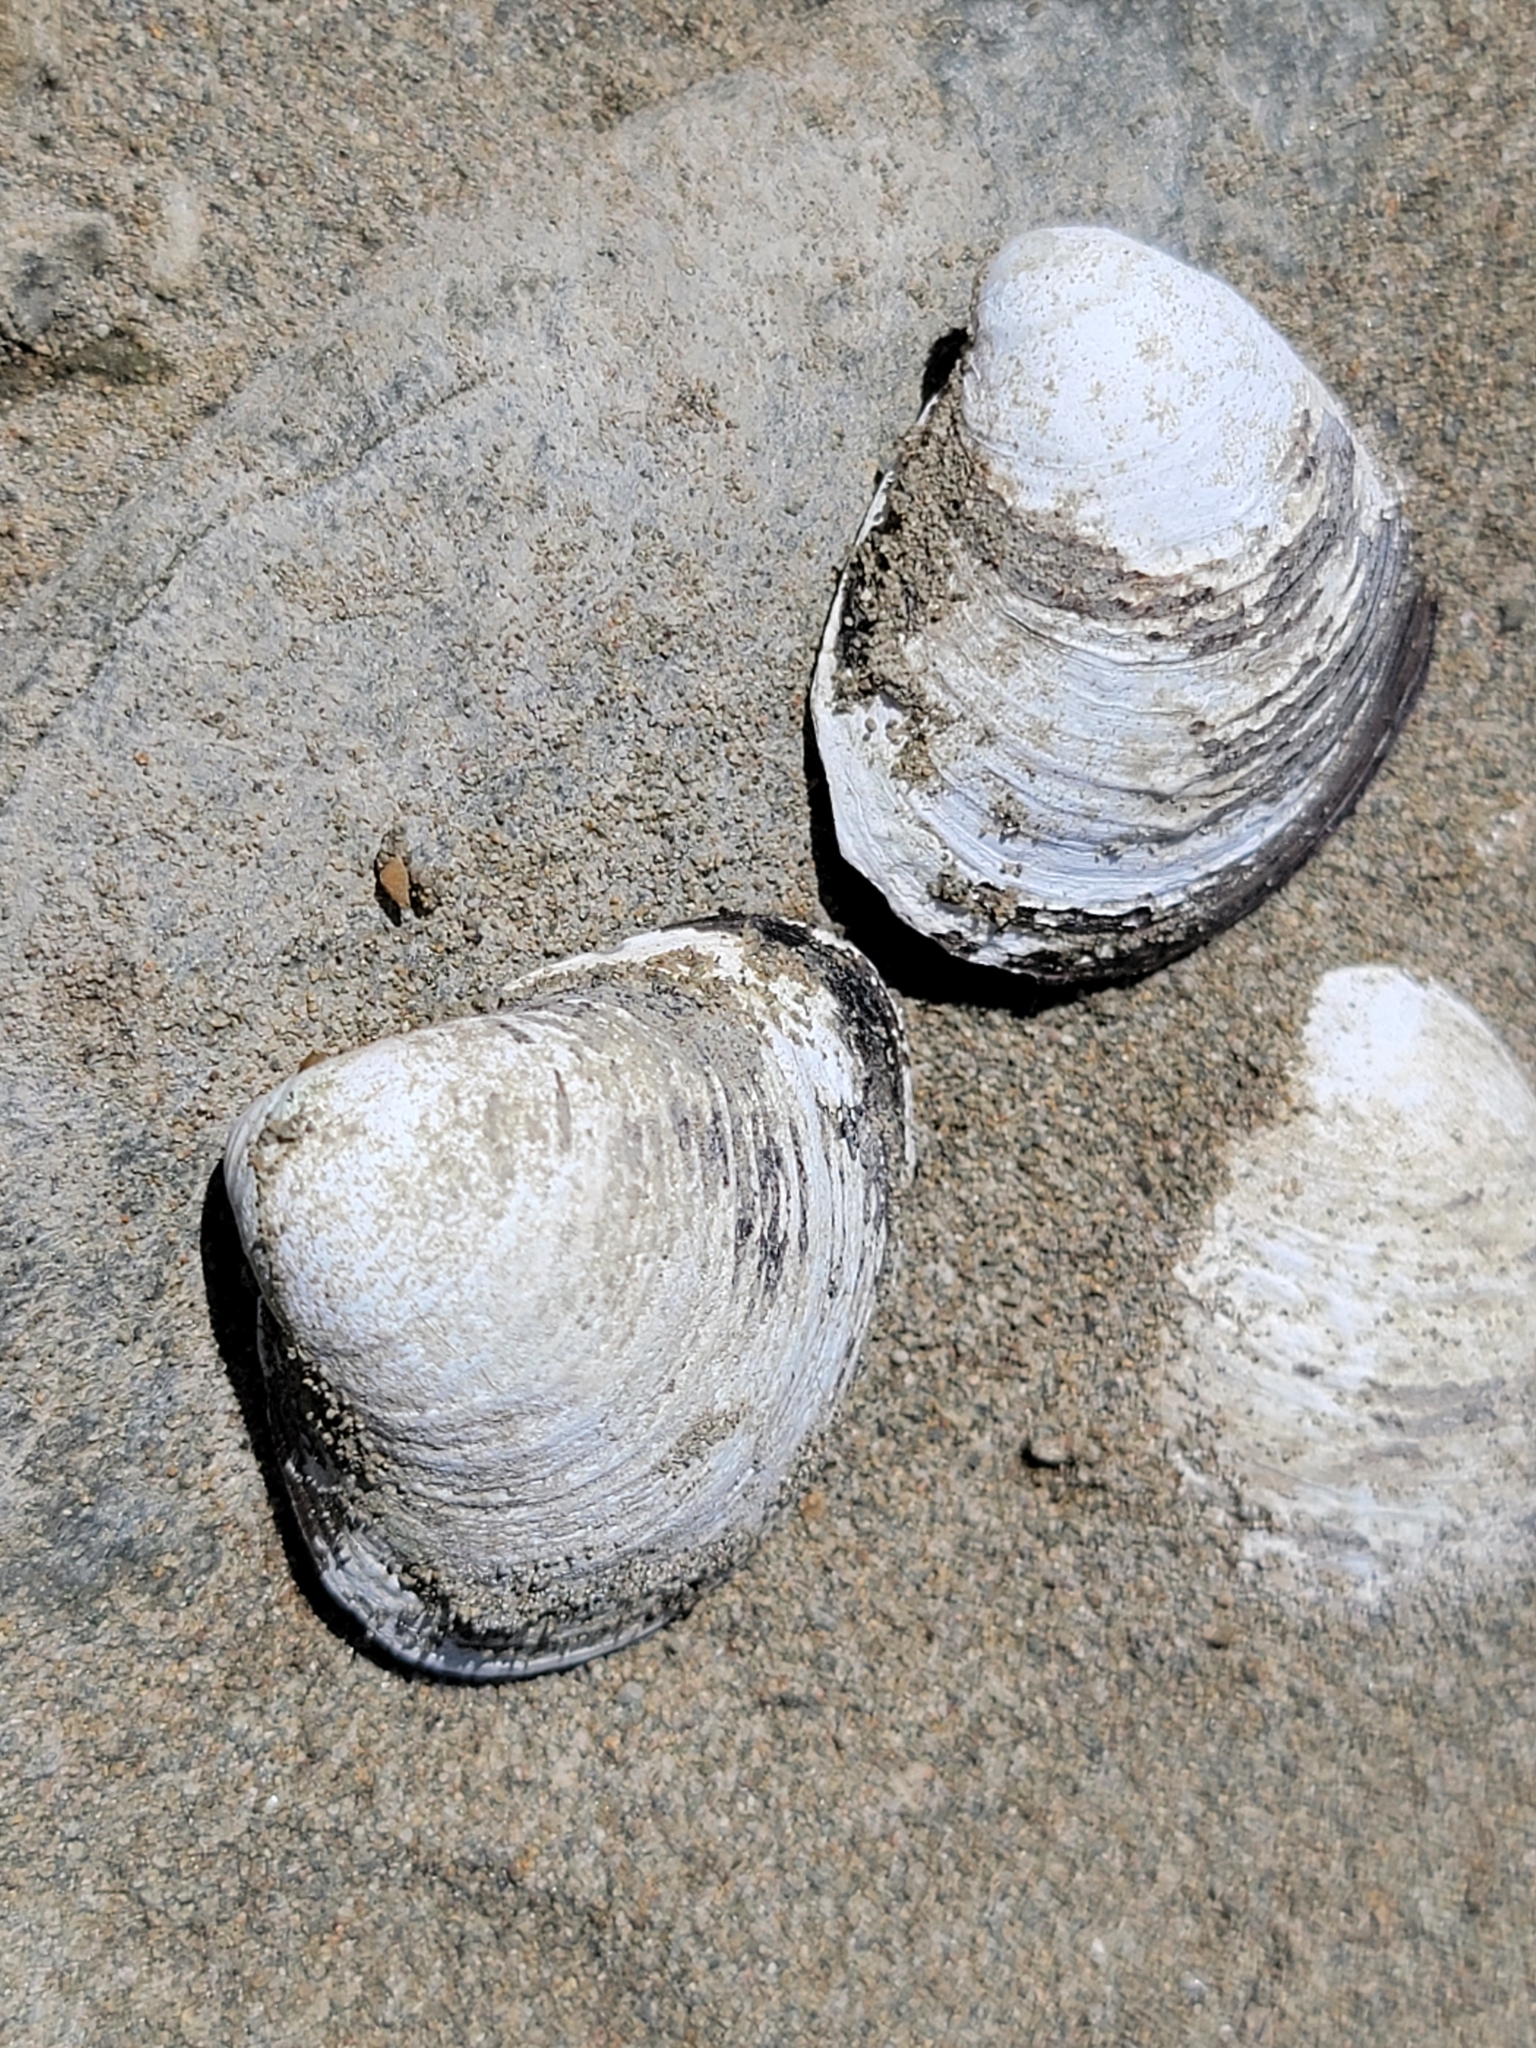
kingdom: Animalia
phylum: Mollusca
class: Bivalvia
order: Venerida
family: Cyrenidae
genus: Corbicula
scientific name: Corbicula fluminea
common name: Asian clam
